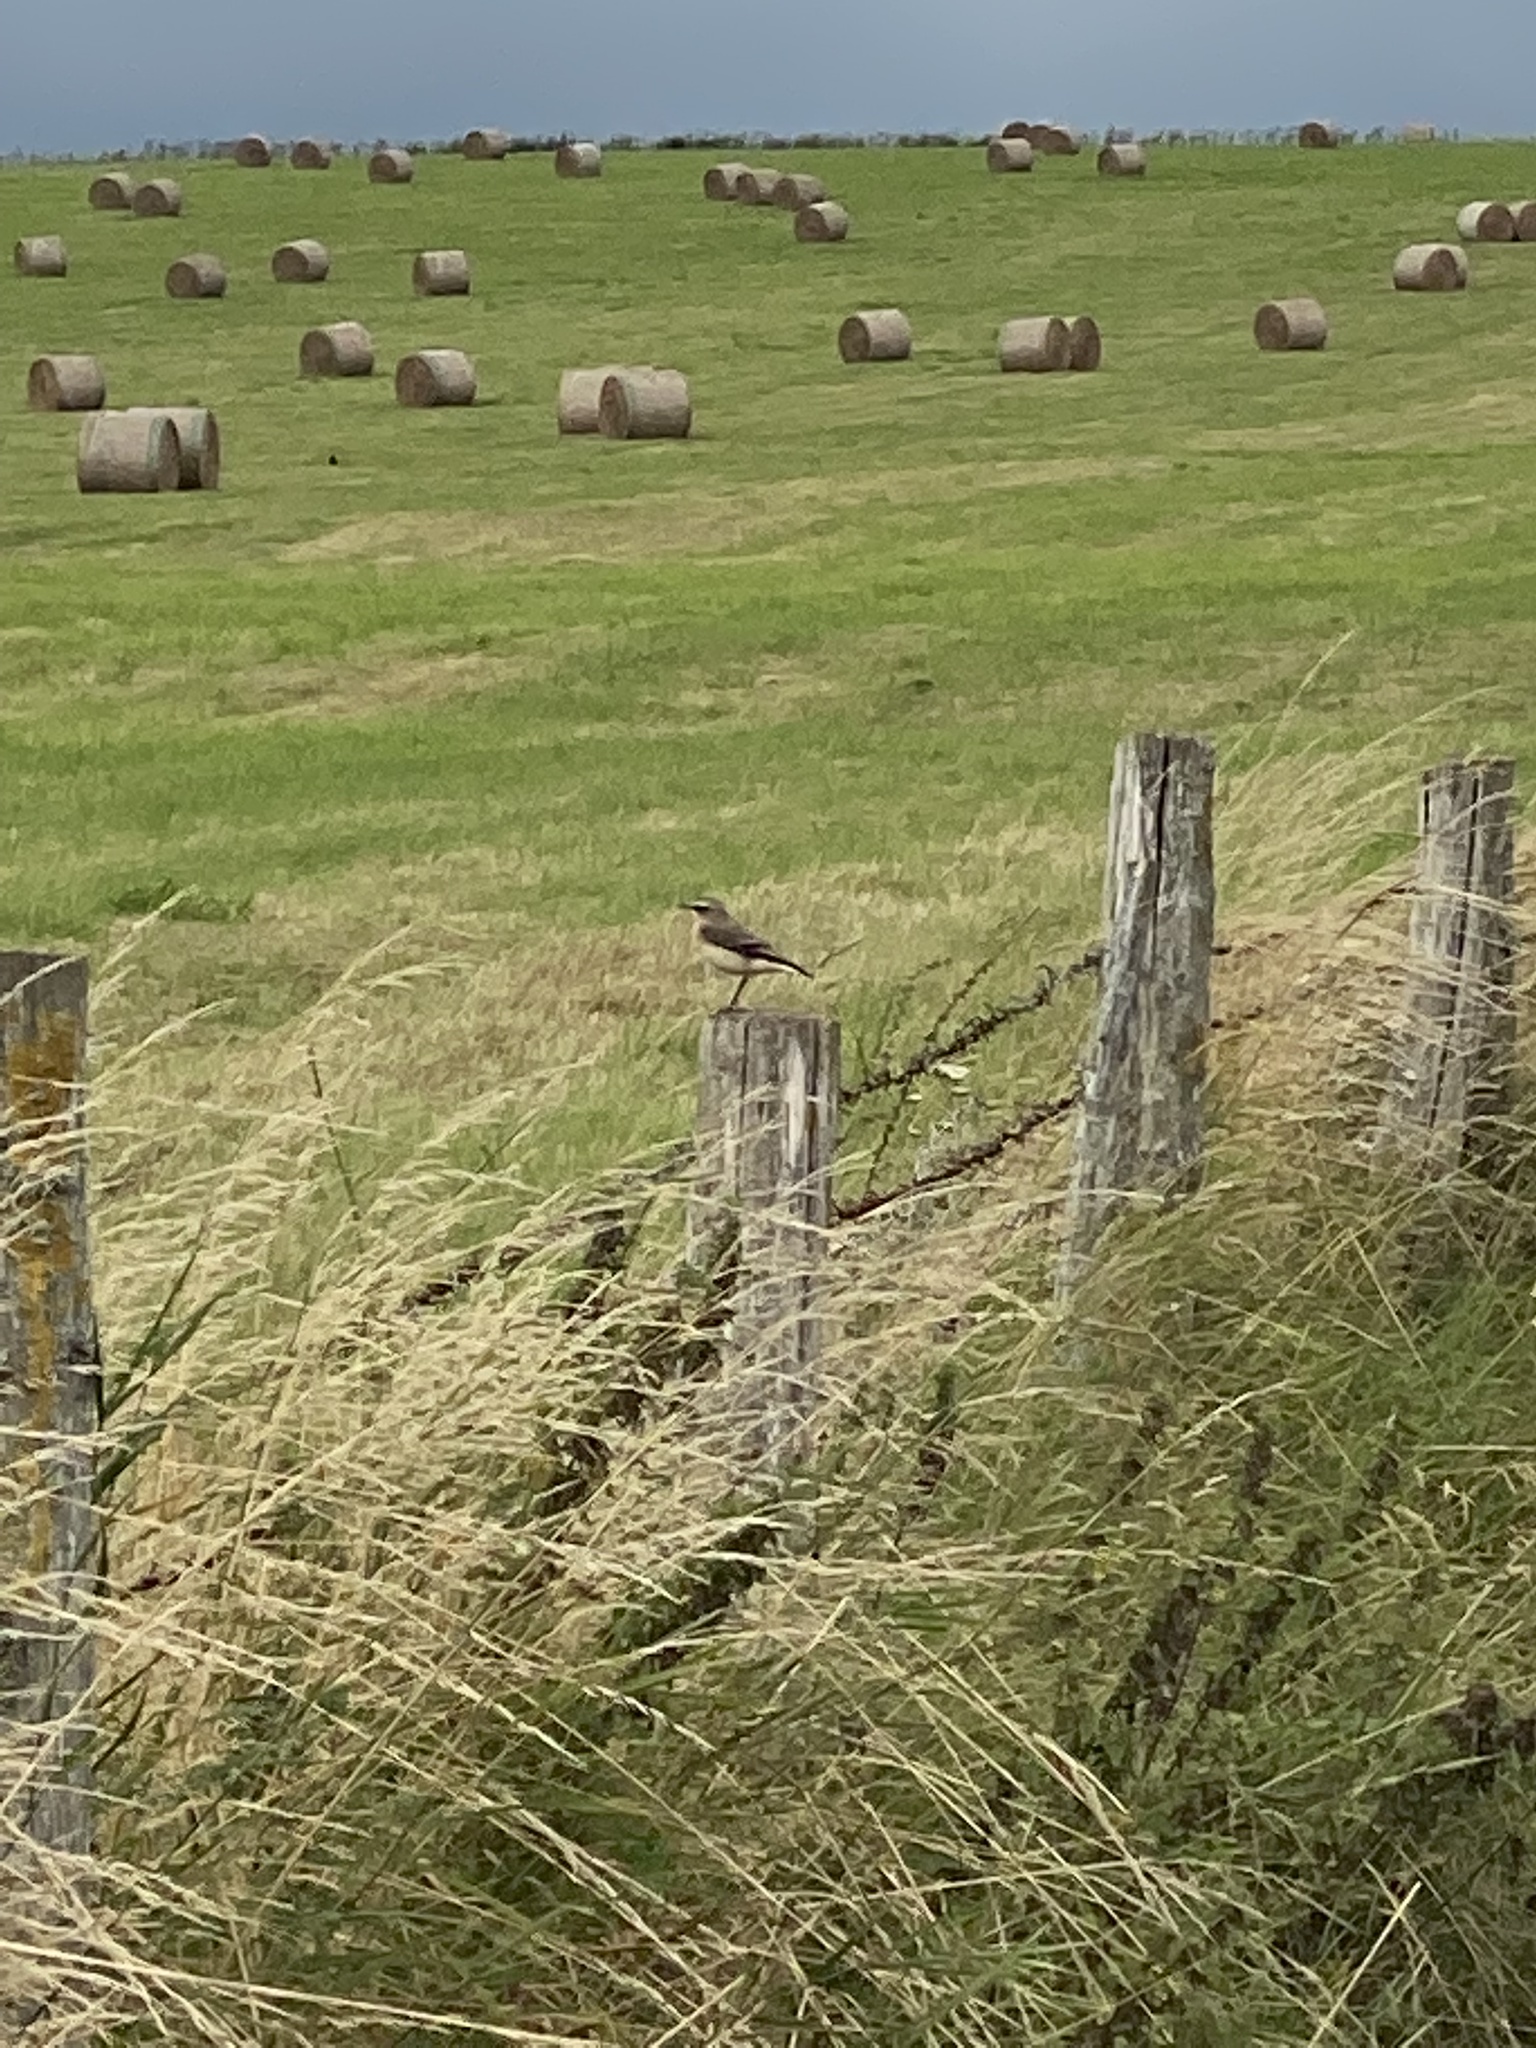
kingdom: Animalia
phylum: Chordata
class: Aves
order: Passeriformes
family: Muscicapidae
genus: Oenanthe
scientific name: Oenanthe oenanthe
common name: Northern wheatear
